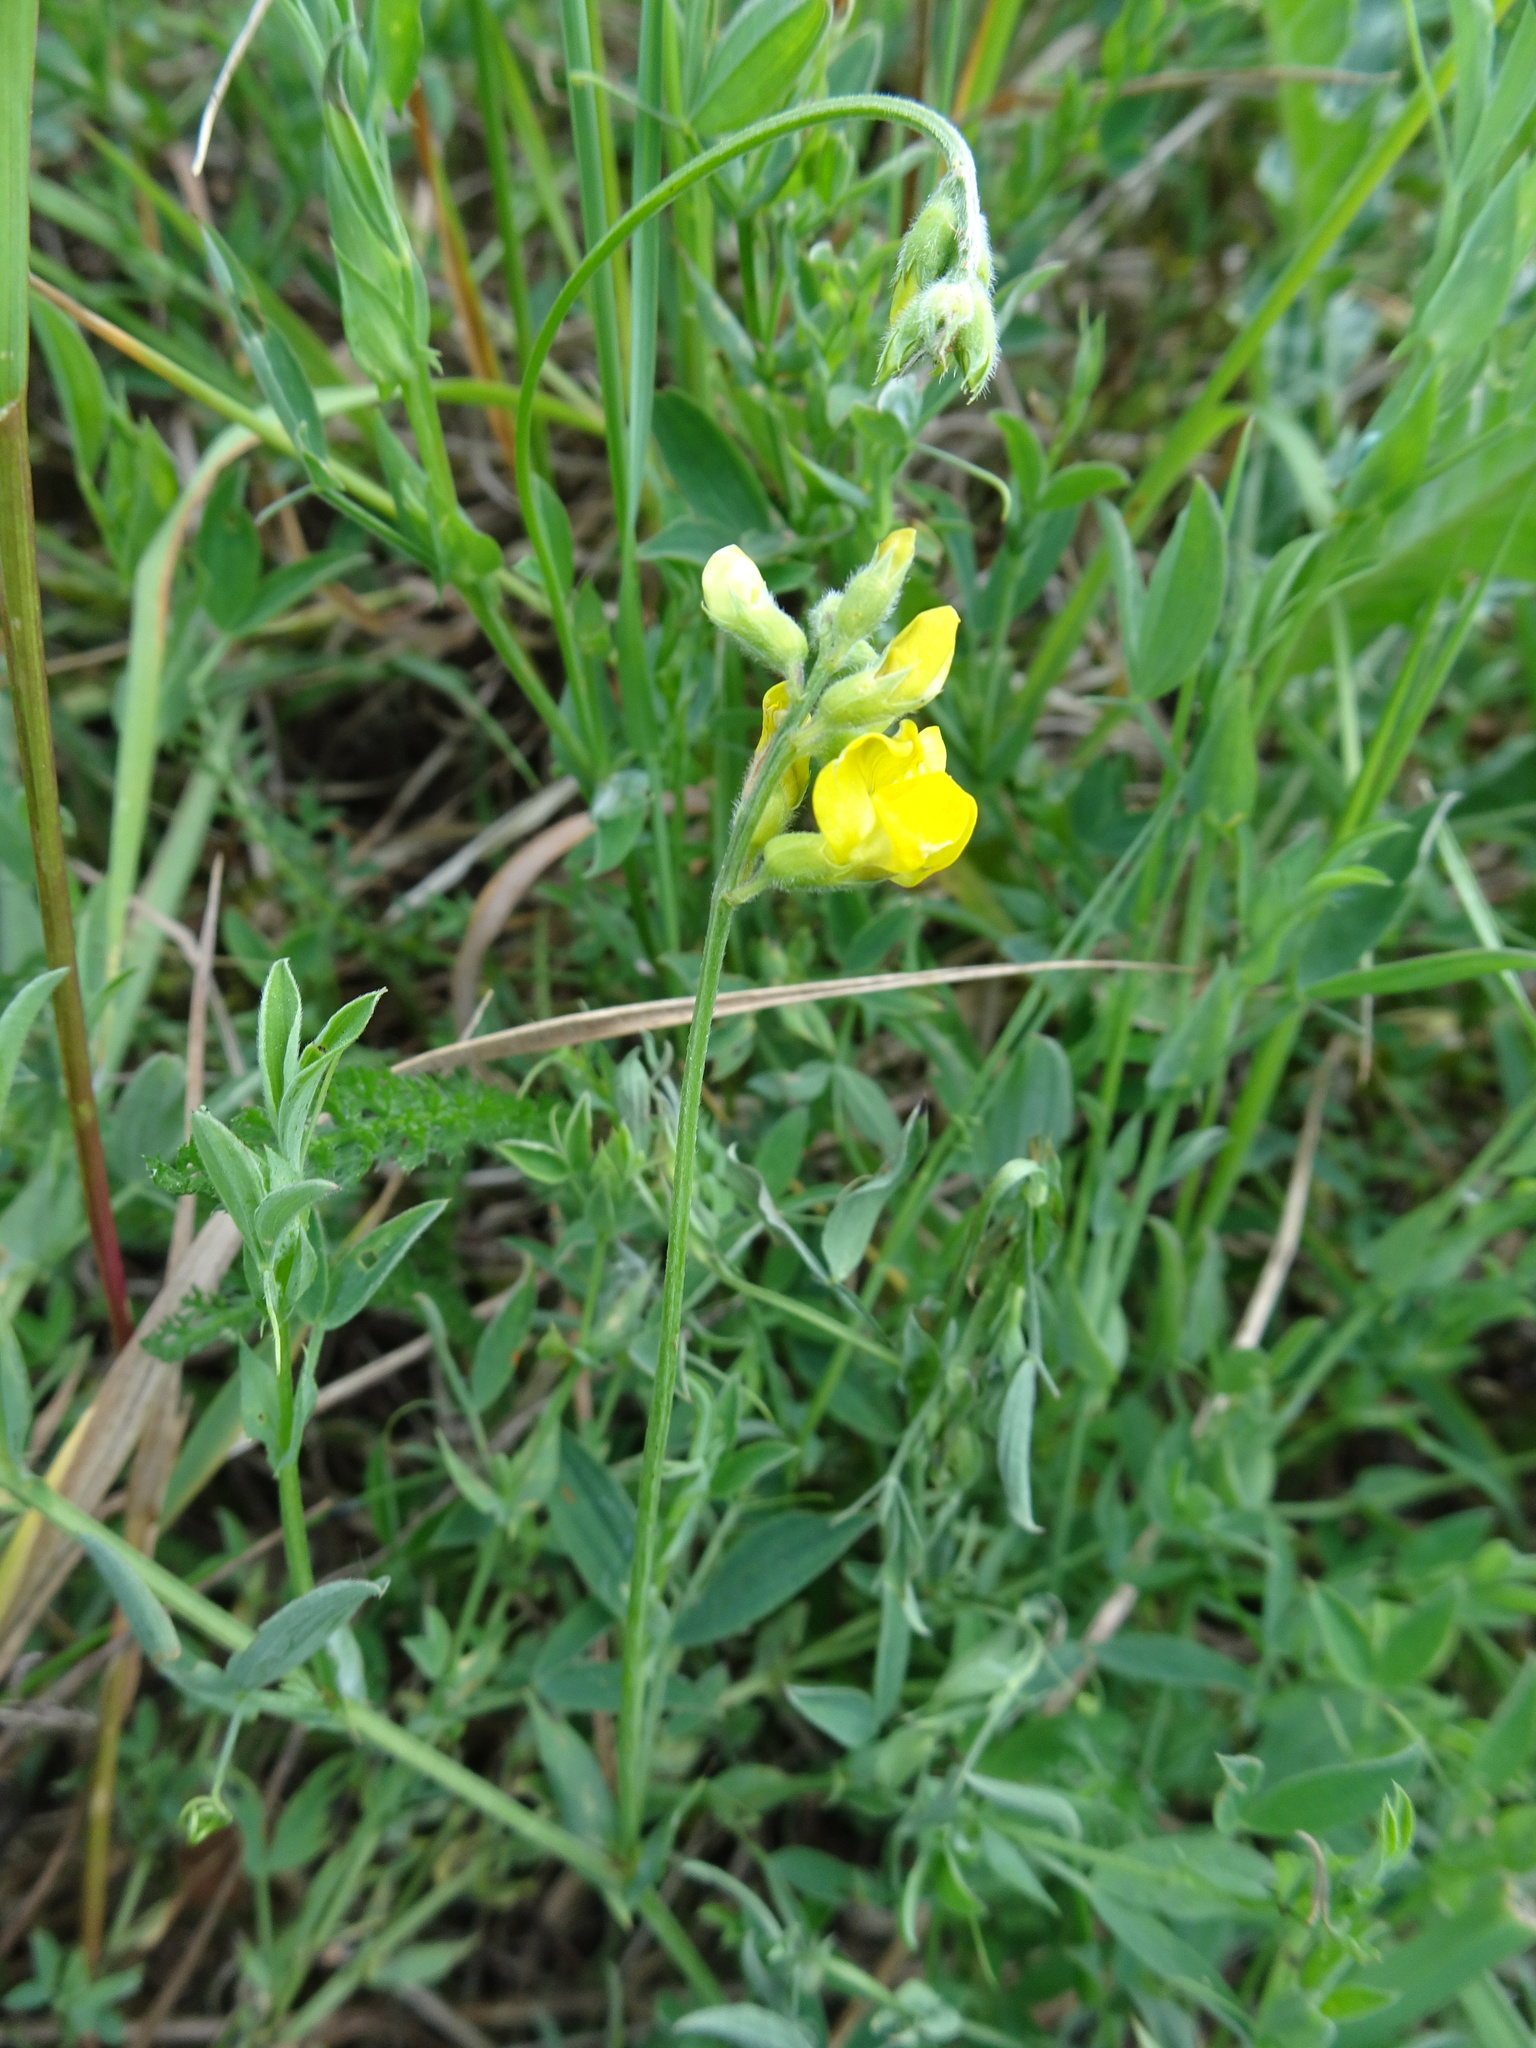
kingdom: Plantae
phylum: Tracheophyta
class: Magnoliopsida
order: Fabales
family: Fabaceae
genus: Lathyrus
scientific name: Lathyrus pratensis
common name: Meadow vetchling
